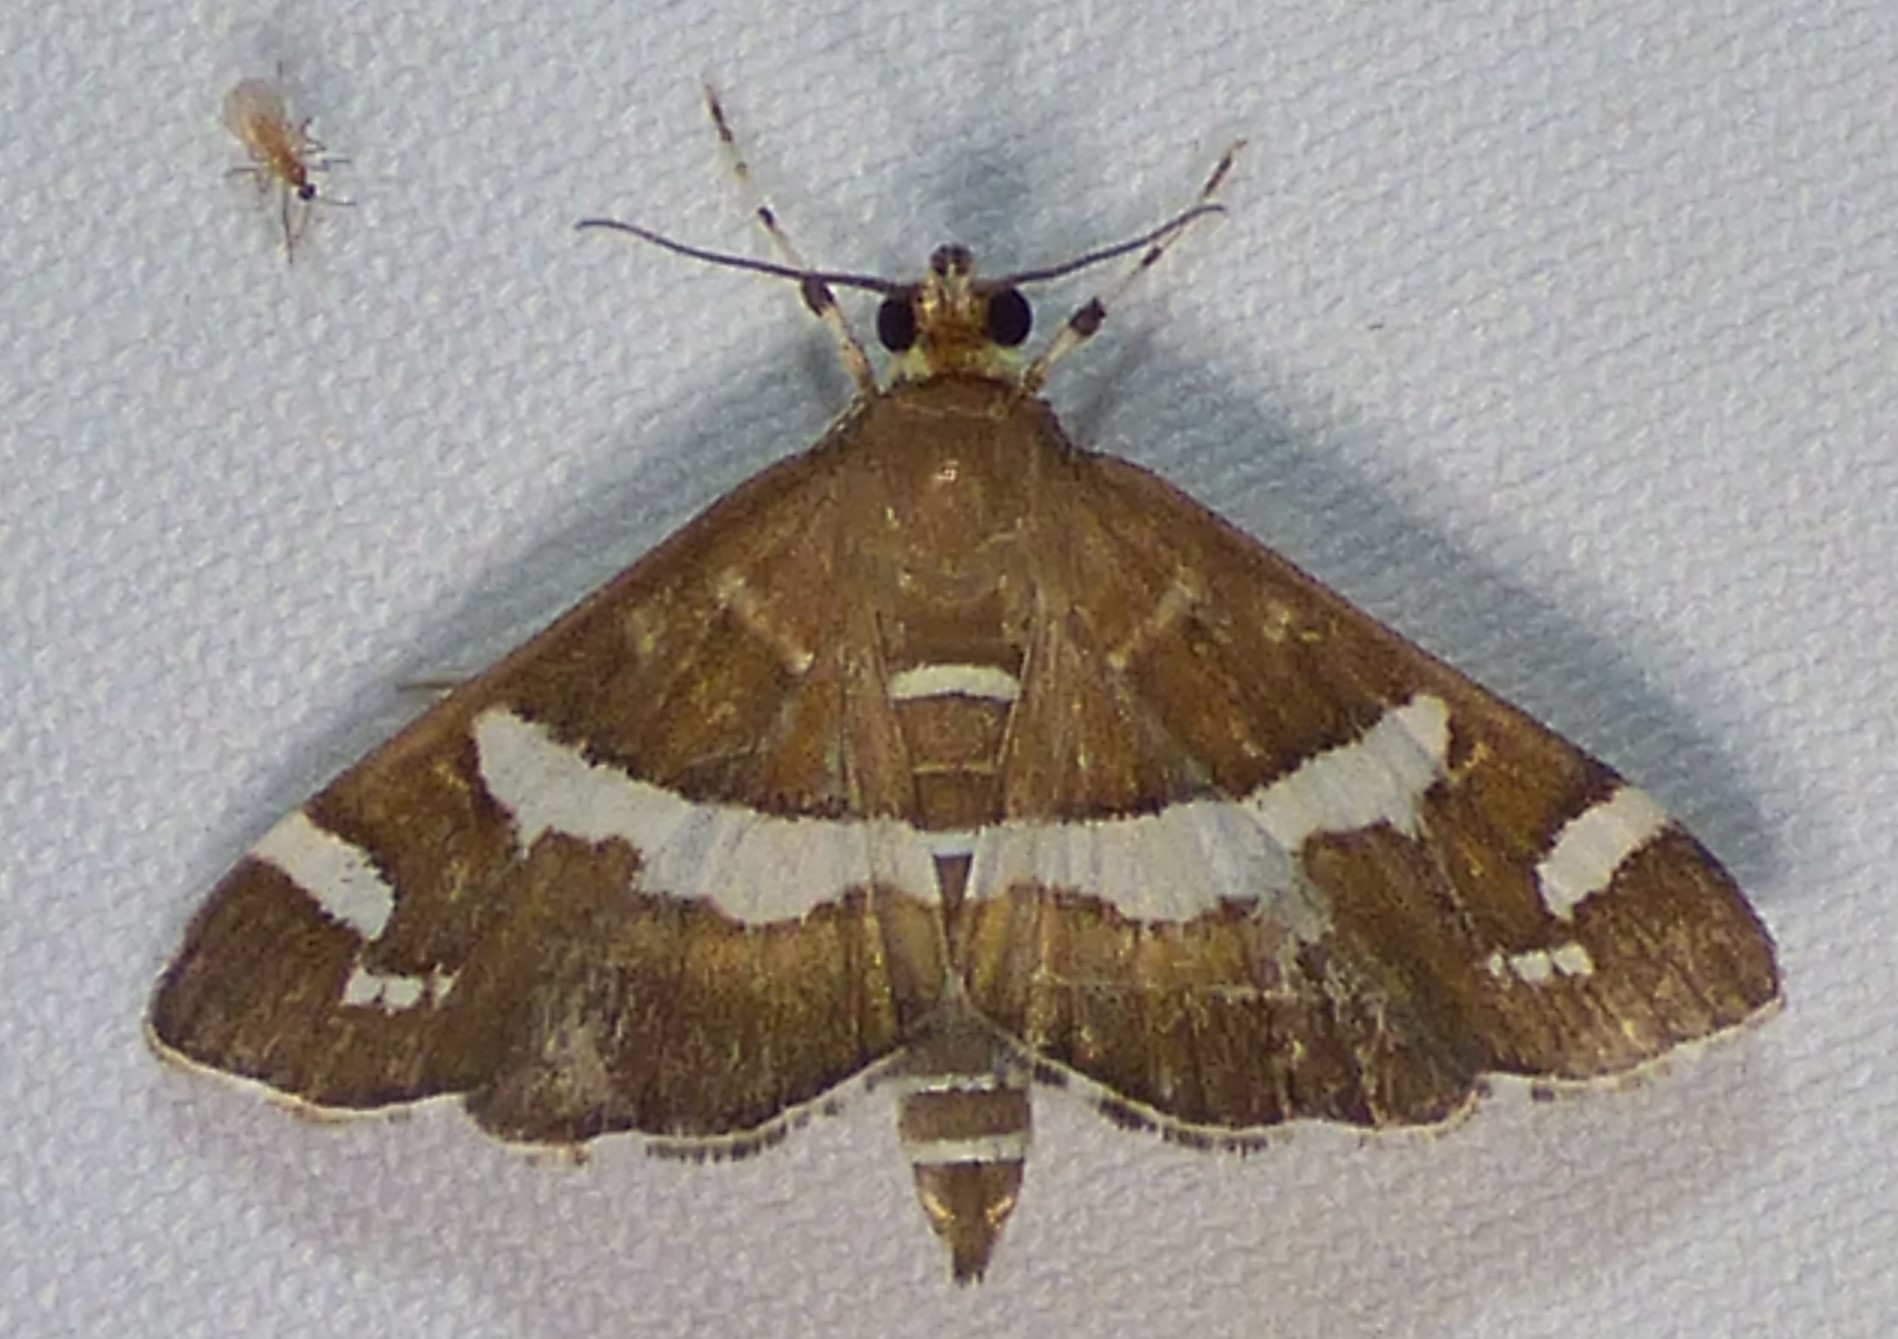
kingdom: Animalia
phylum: Arthropoda
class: Insecta
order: Lepidoptera
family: Crambidae
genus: Spoladea
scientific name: Spoladea recurvalis
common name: Beet webworm moth
